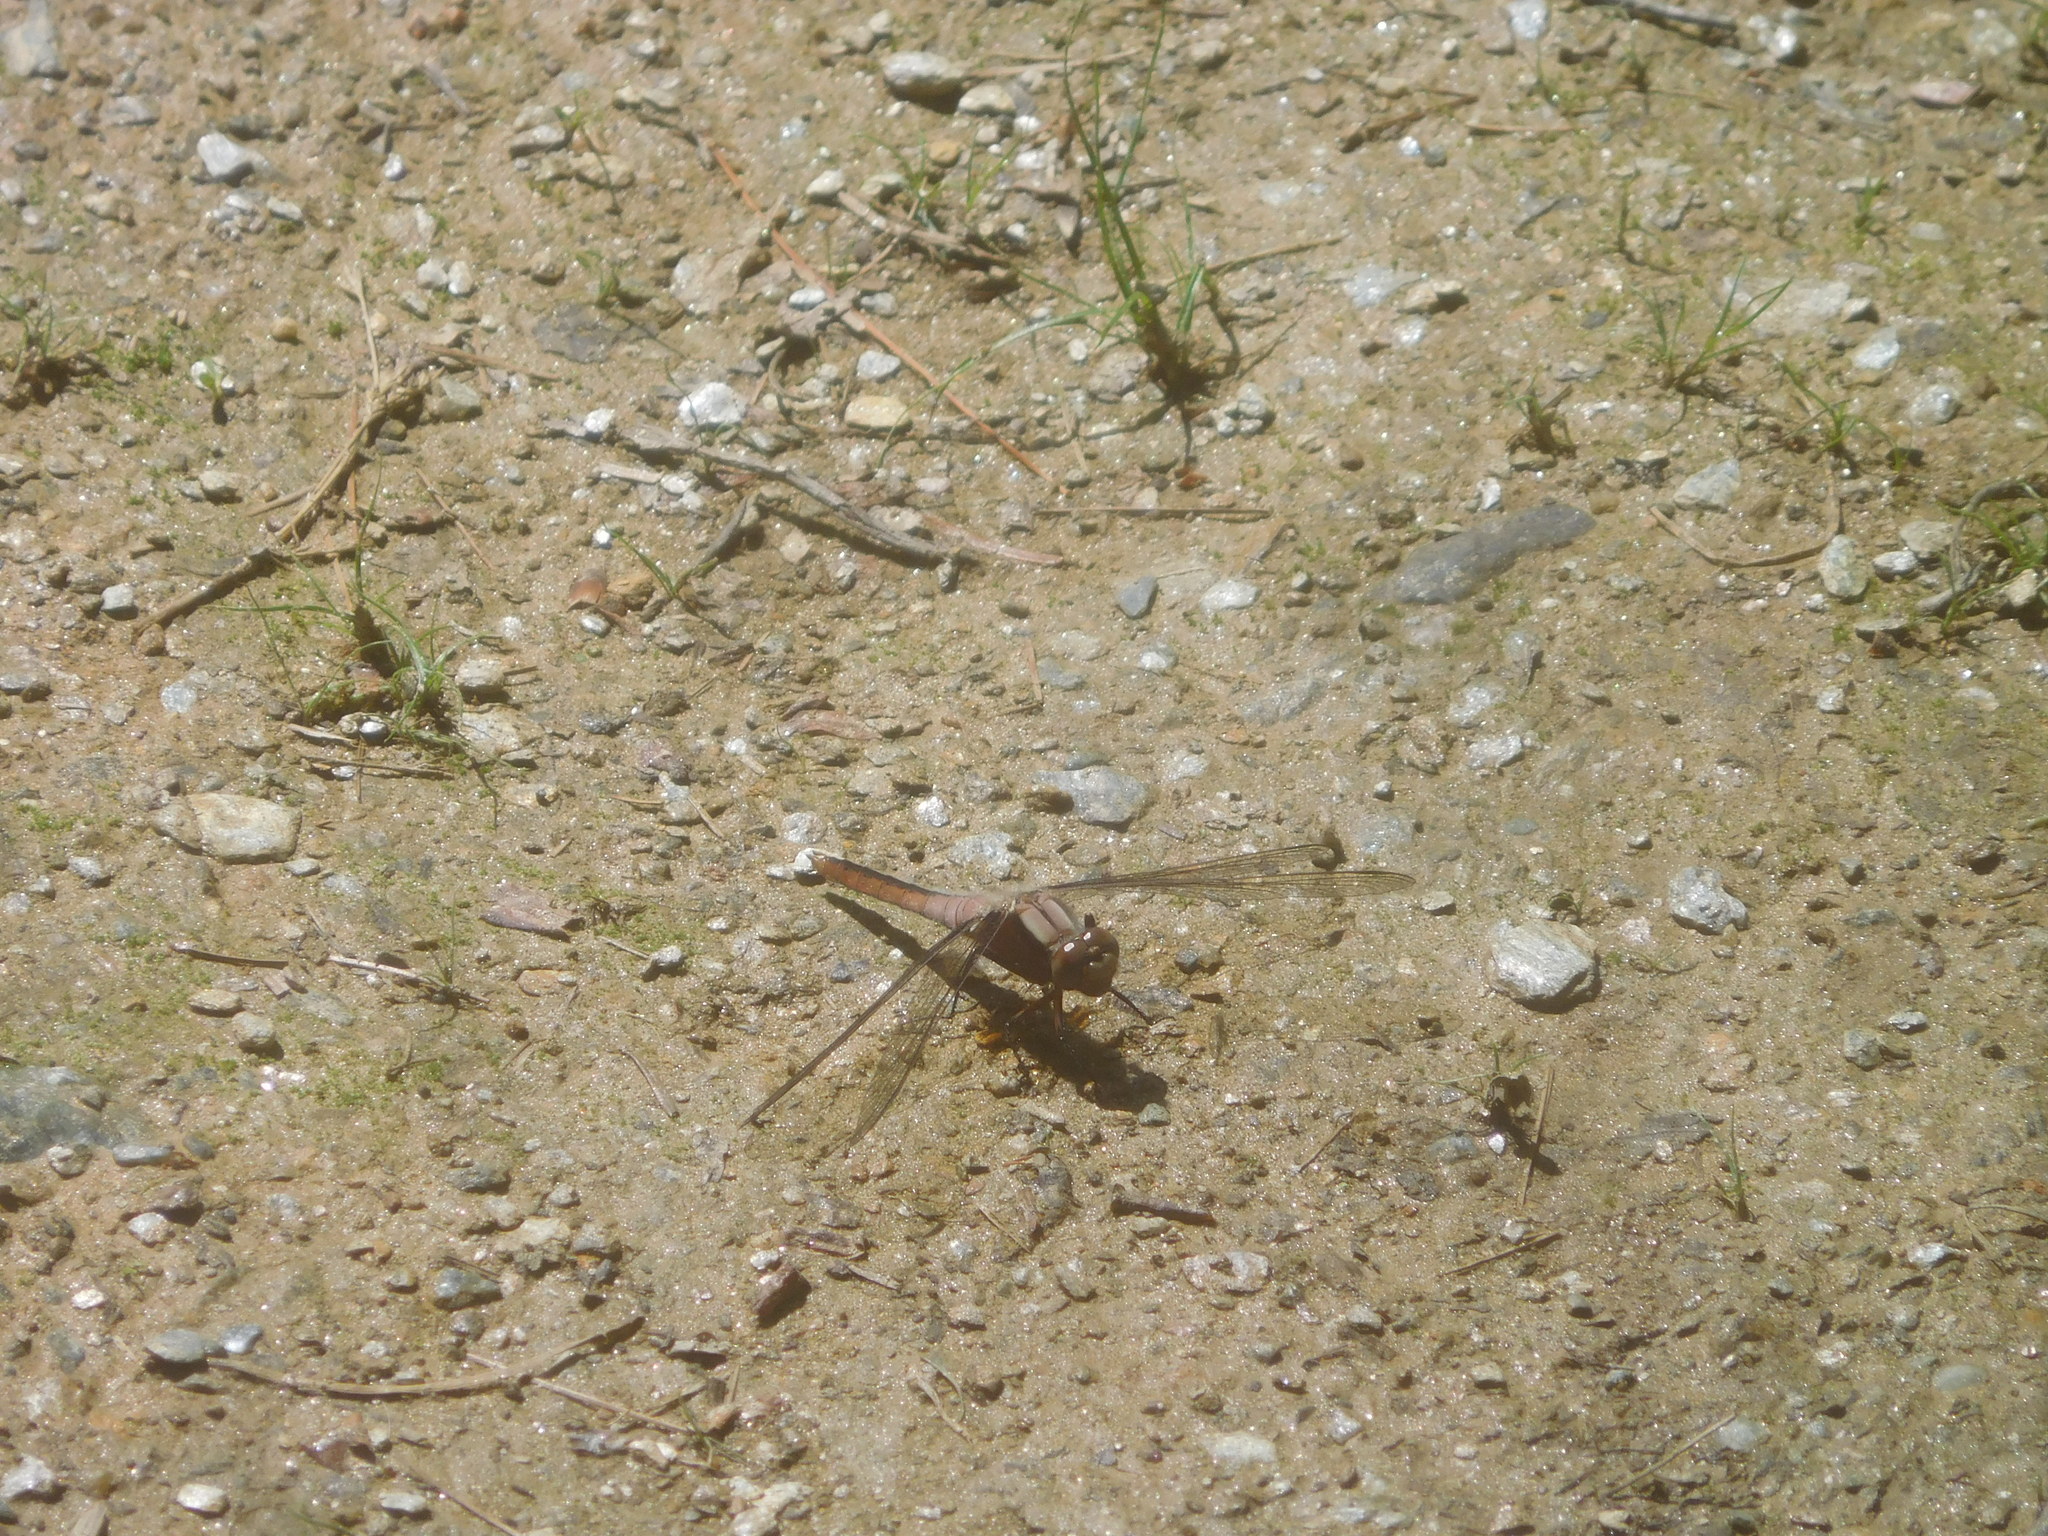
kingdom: Animalia
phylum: Arthropoda
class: Insecta
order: Odonata
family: Libellulidae
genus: Ladona
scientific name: Ladona julia
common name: Chalk-fronted corporal
